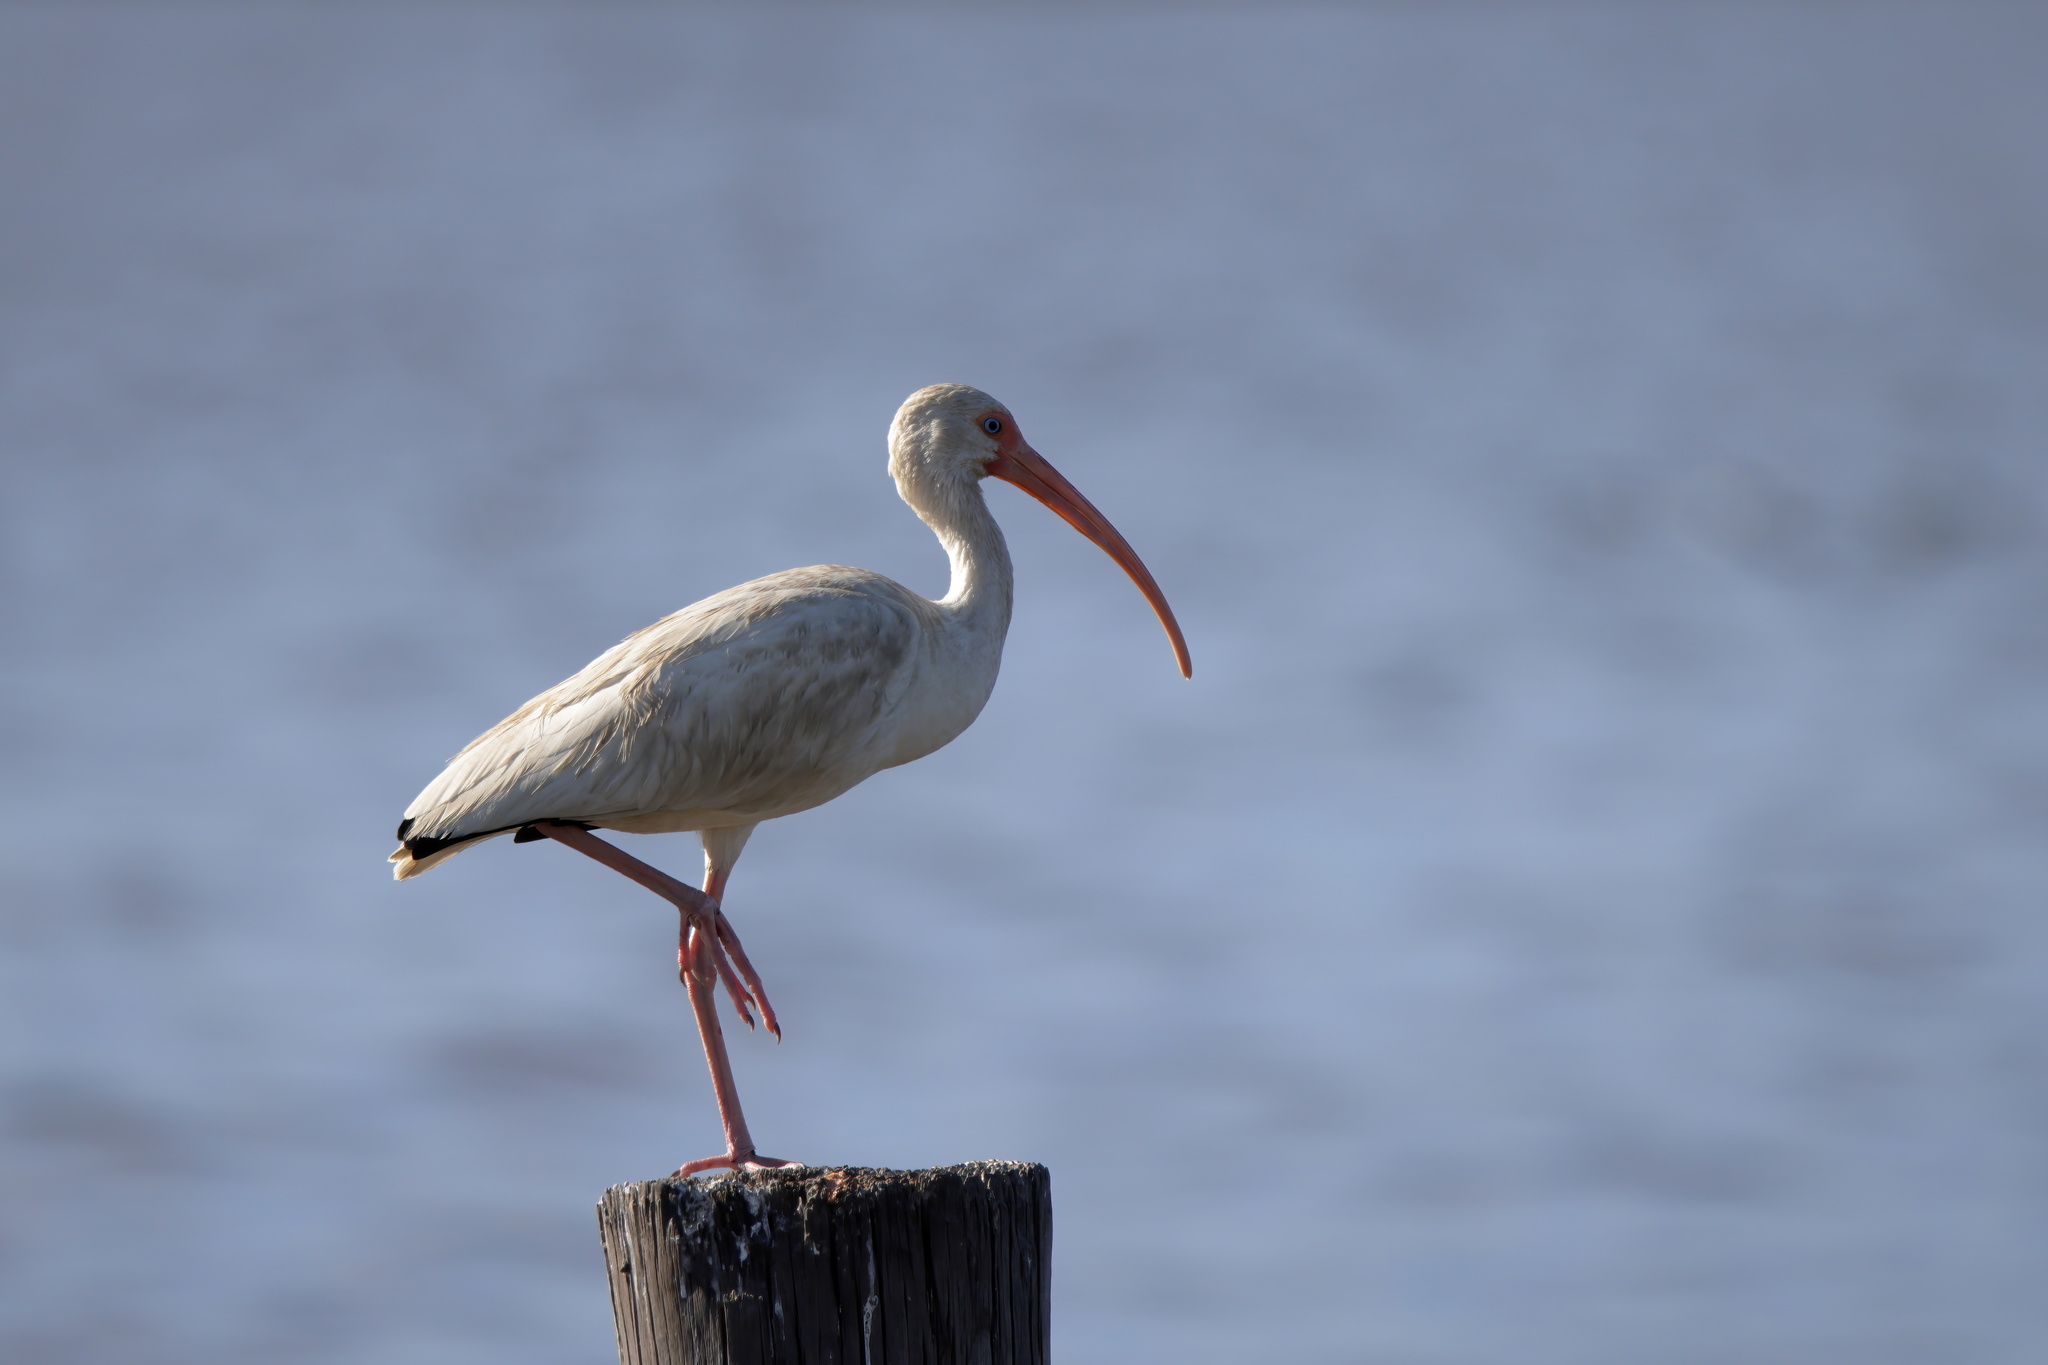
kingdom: Animalia
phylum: Chordata
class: Aves
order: Pelecaniformes
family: Threskiornithidae
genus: Eudocimus
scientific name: Eudocimus albus
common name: White ibis
